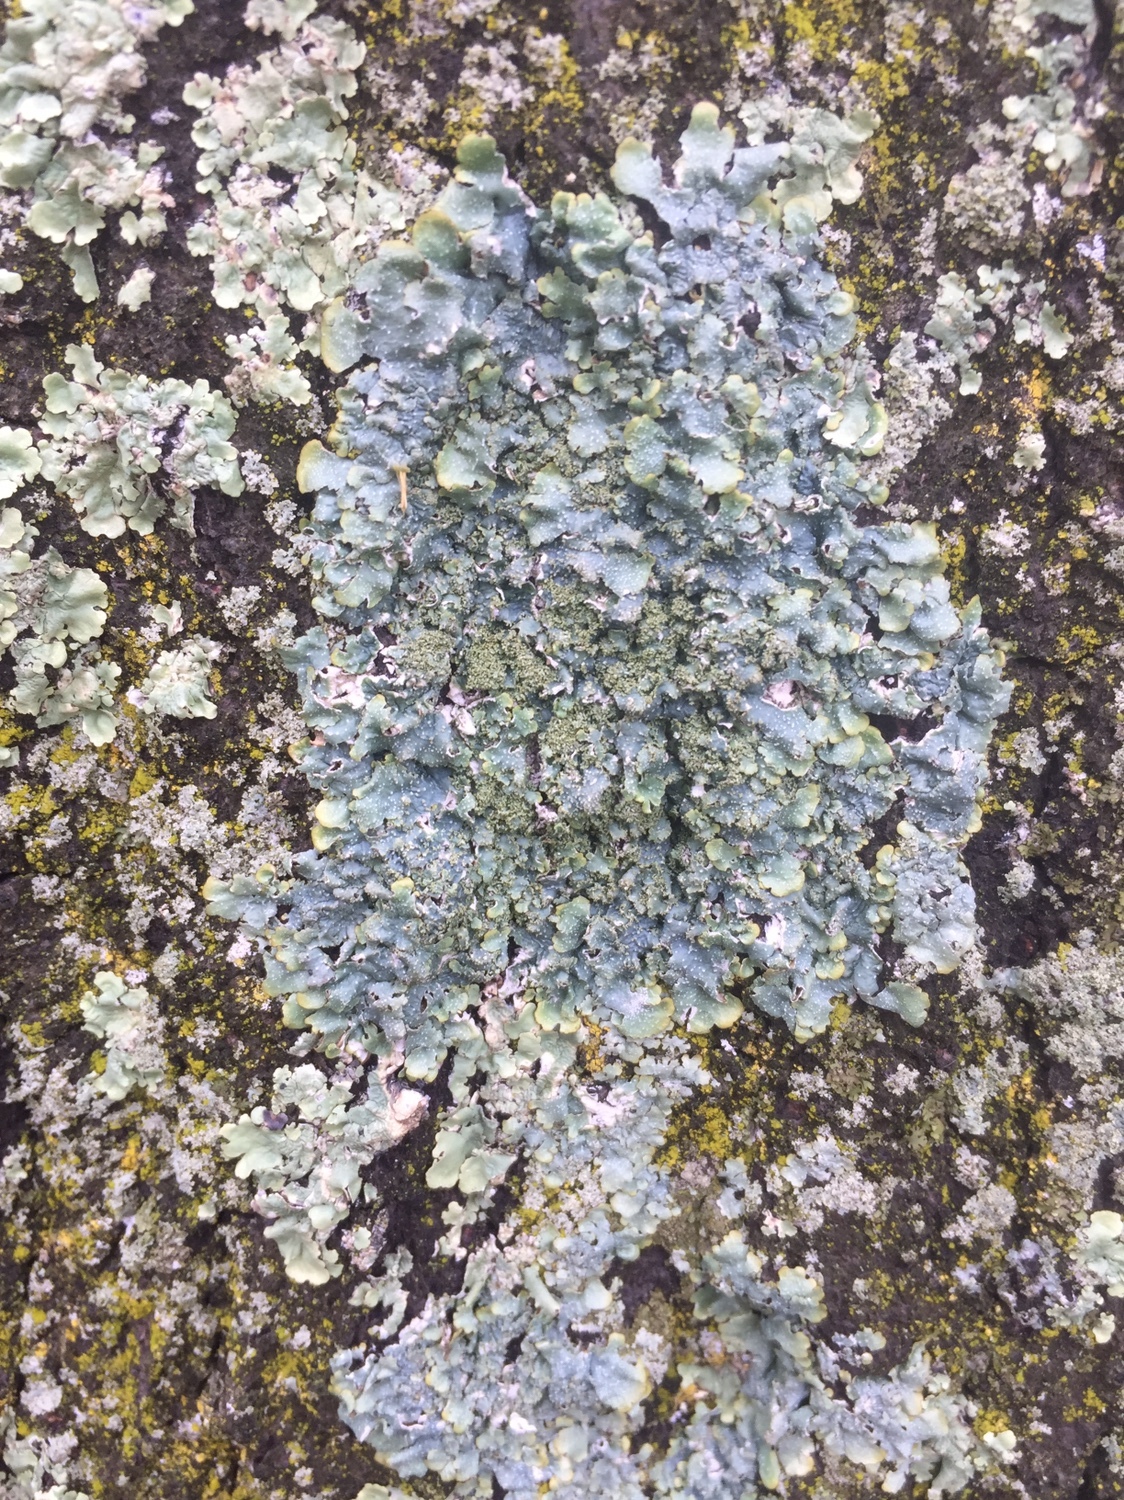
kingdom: Fungi
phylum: Ascomycota
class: Lecanoromycetes
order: Lecanorales
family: Parmeliaceae
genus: Punctelia
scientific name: Punctelia rudecta
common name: Rough speckled shield lichen
